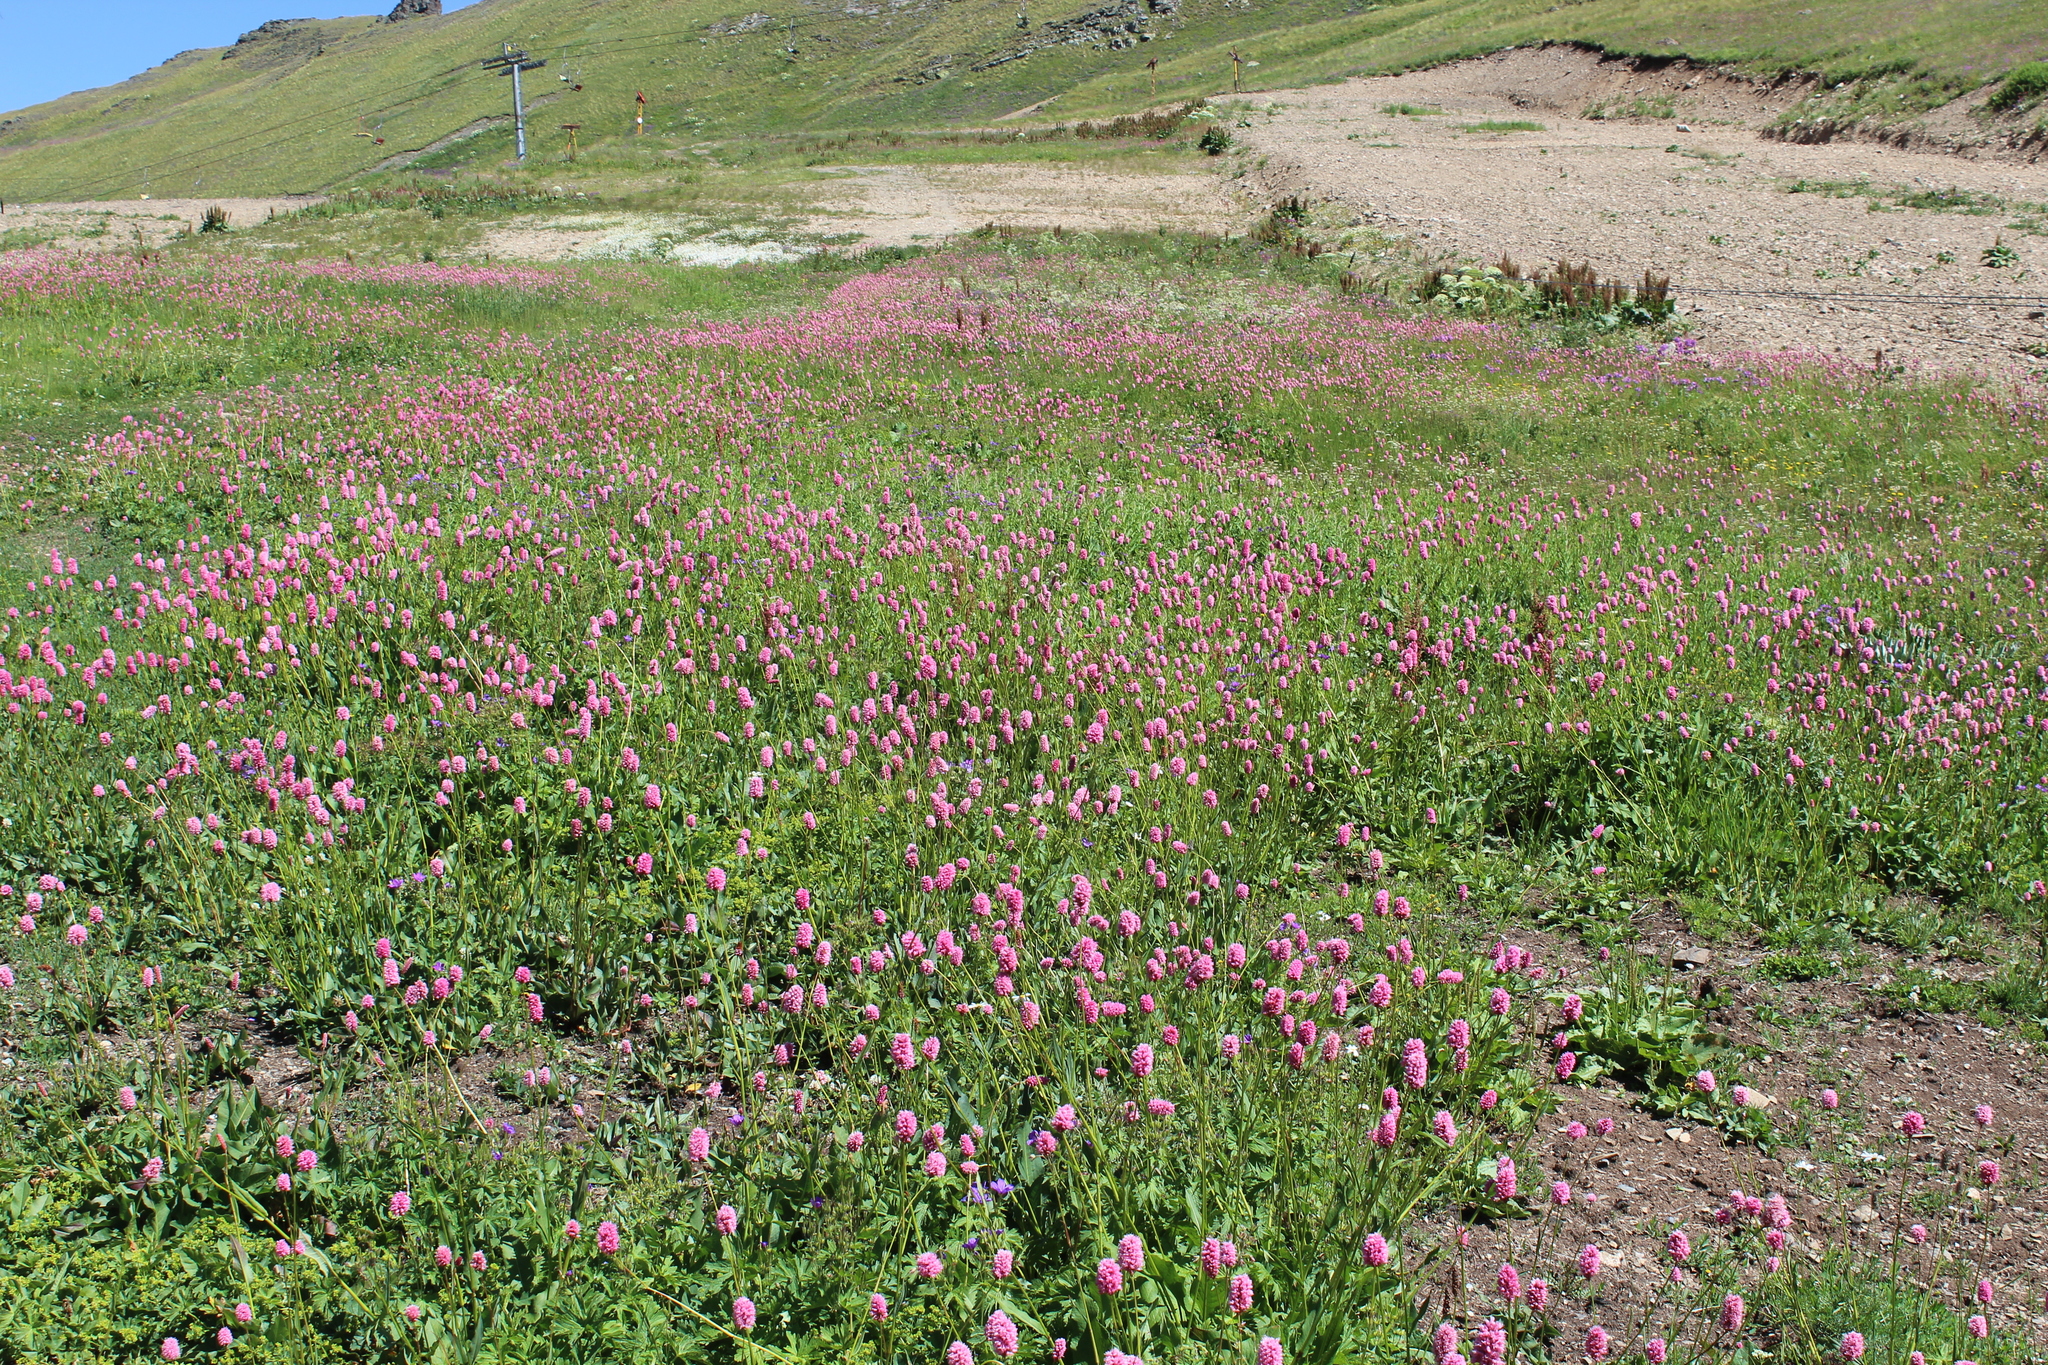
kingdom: Plantae
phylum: Tracheophyta
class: Magnoliopsida
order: Caryophyllales
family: Polygonaceae
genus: Bistorta
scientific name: Bistorta carnea
